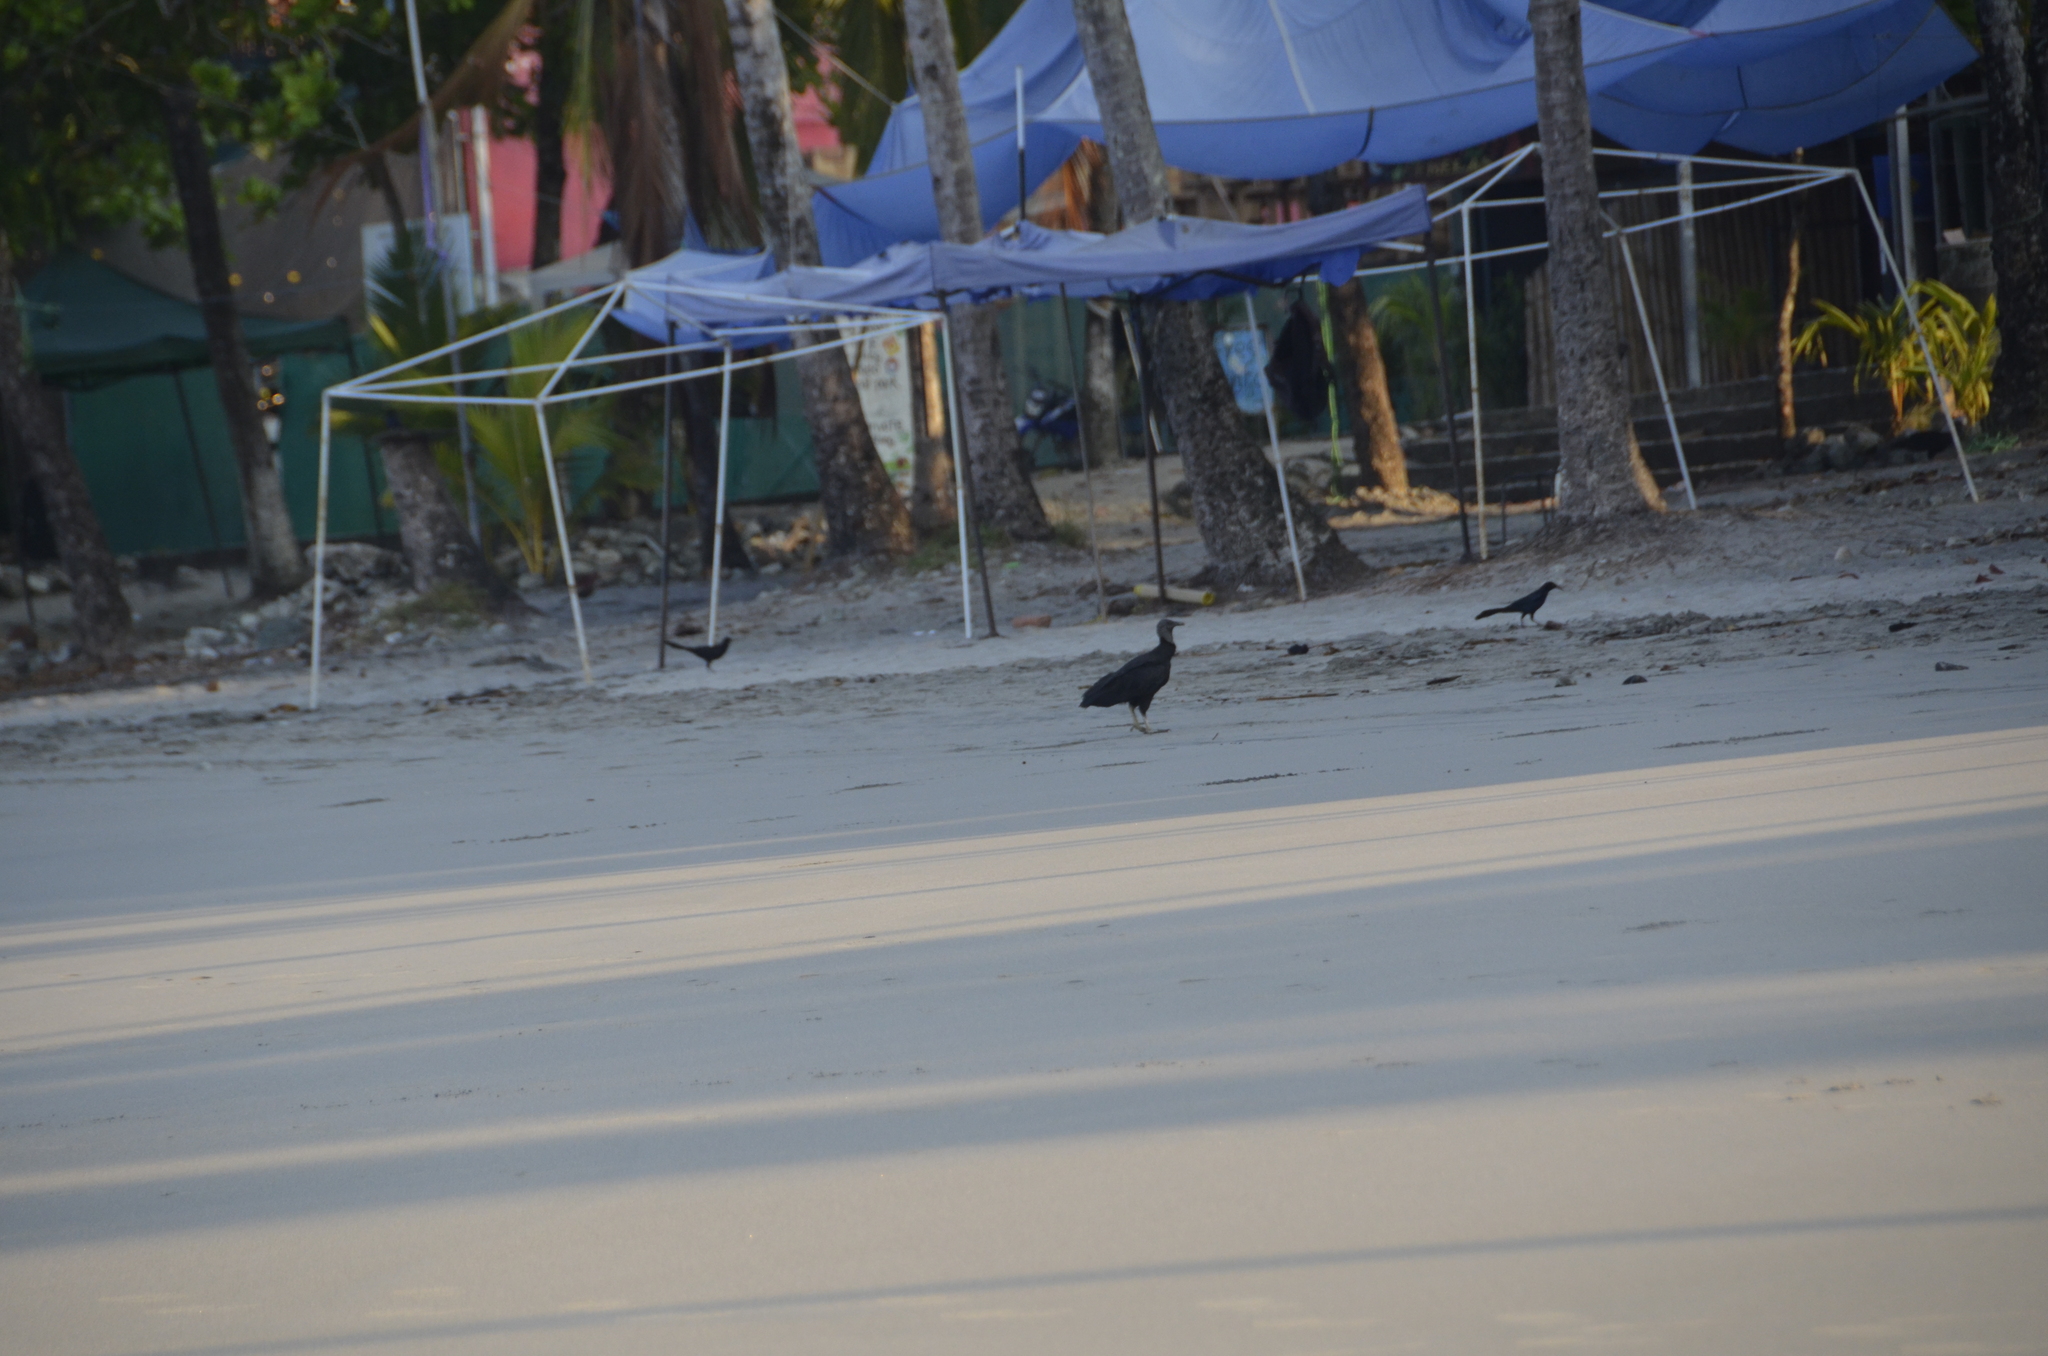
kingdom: Animalia
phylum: Chordata
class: Aves
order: Accipitriformes
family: Cathartidae
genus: Coragyps
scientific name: Coragyps atratus
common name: Black vulture
